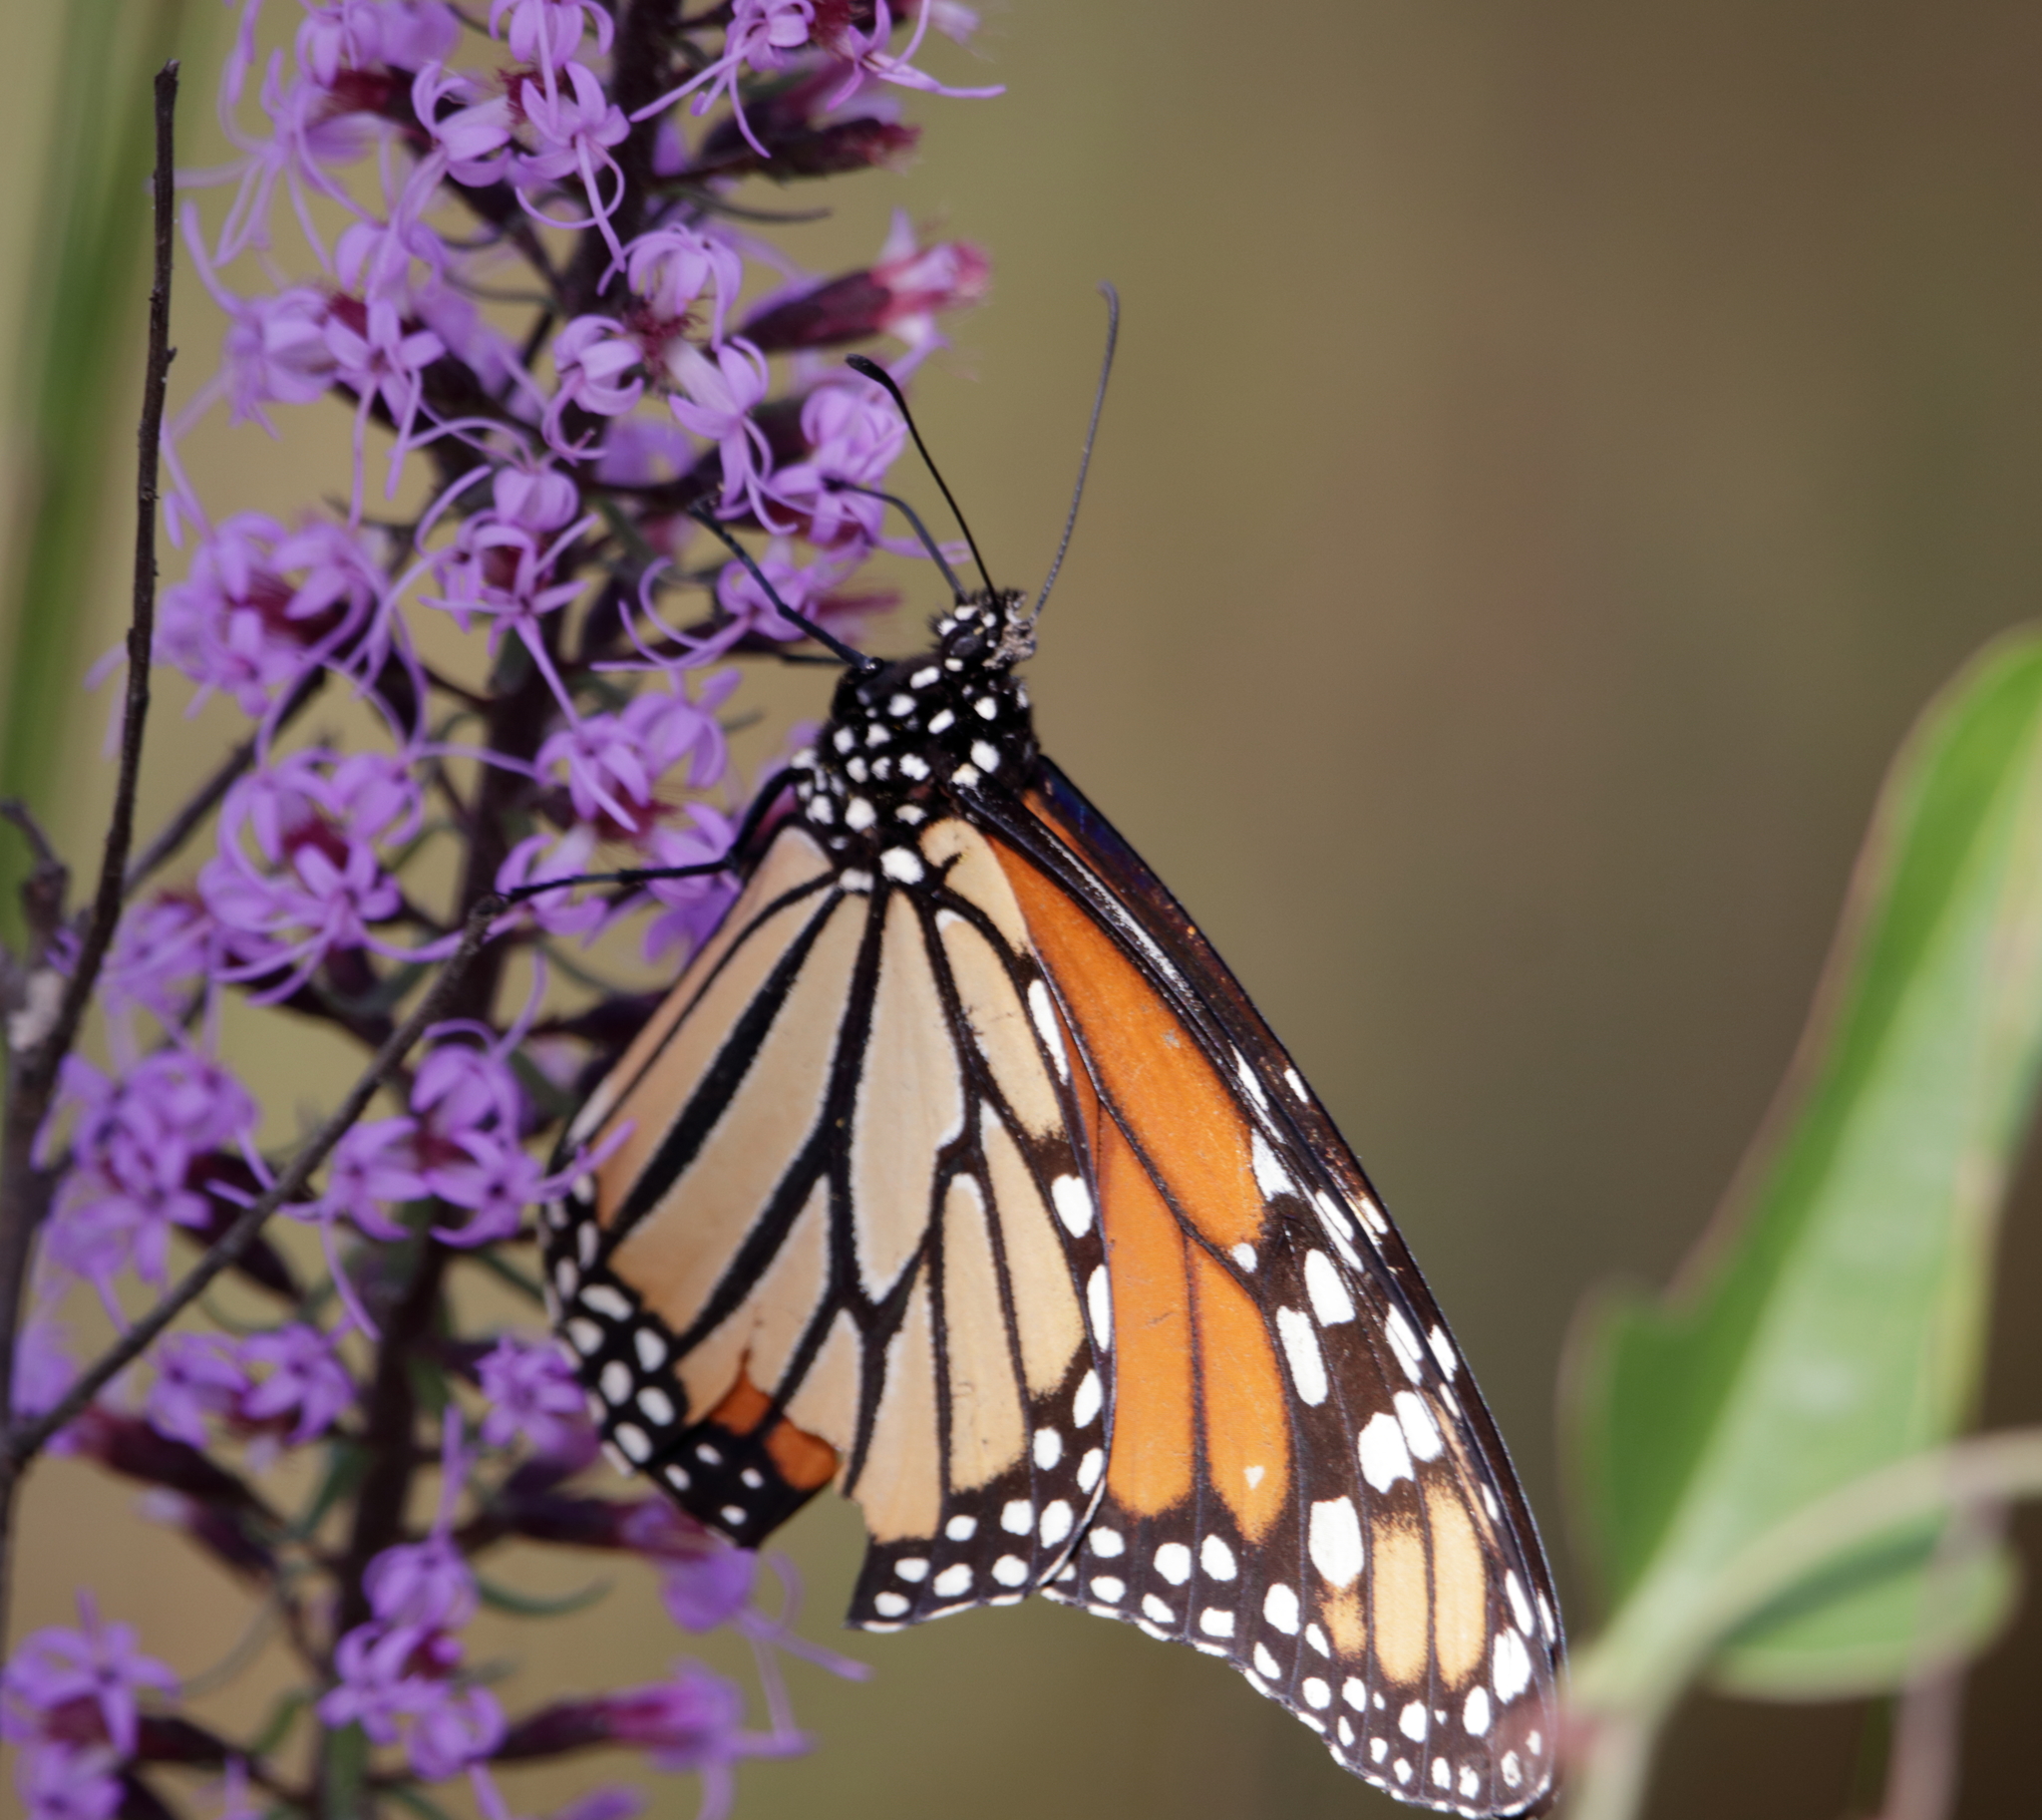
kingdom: Animalia
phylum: Arthropoda
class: Insecta
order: Lepidoptera
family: Nymphalidae
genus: Danaus
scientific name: Danaus plexippus
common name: Monarch
